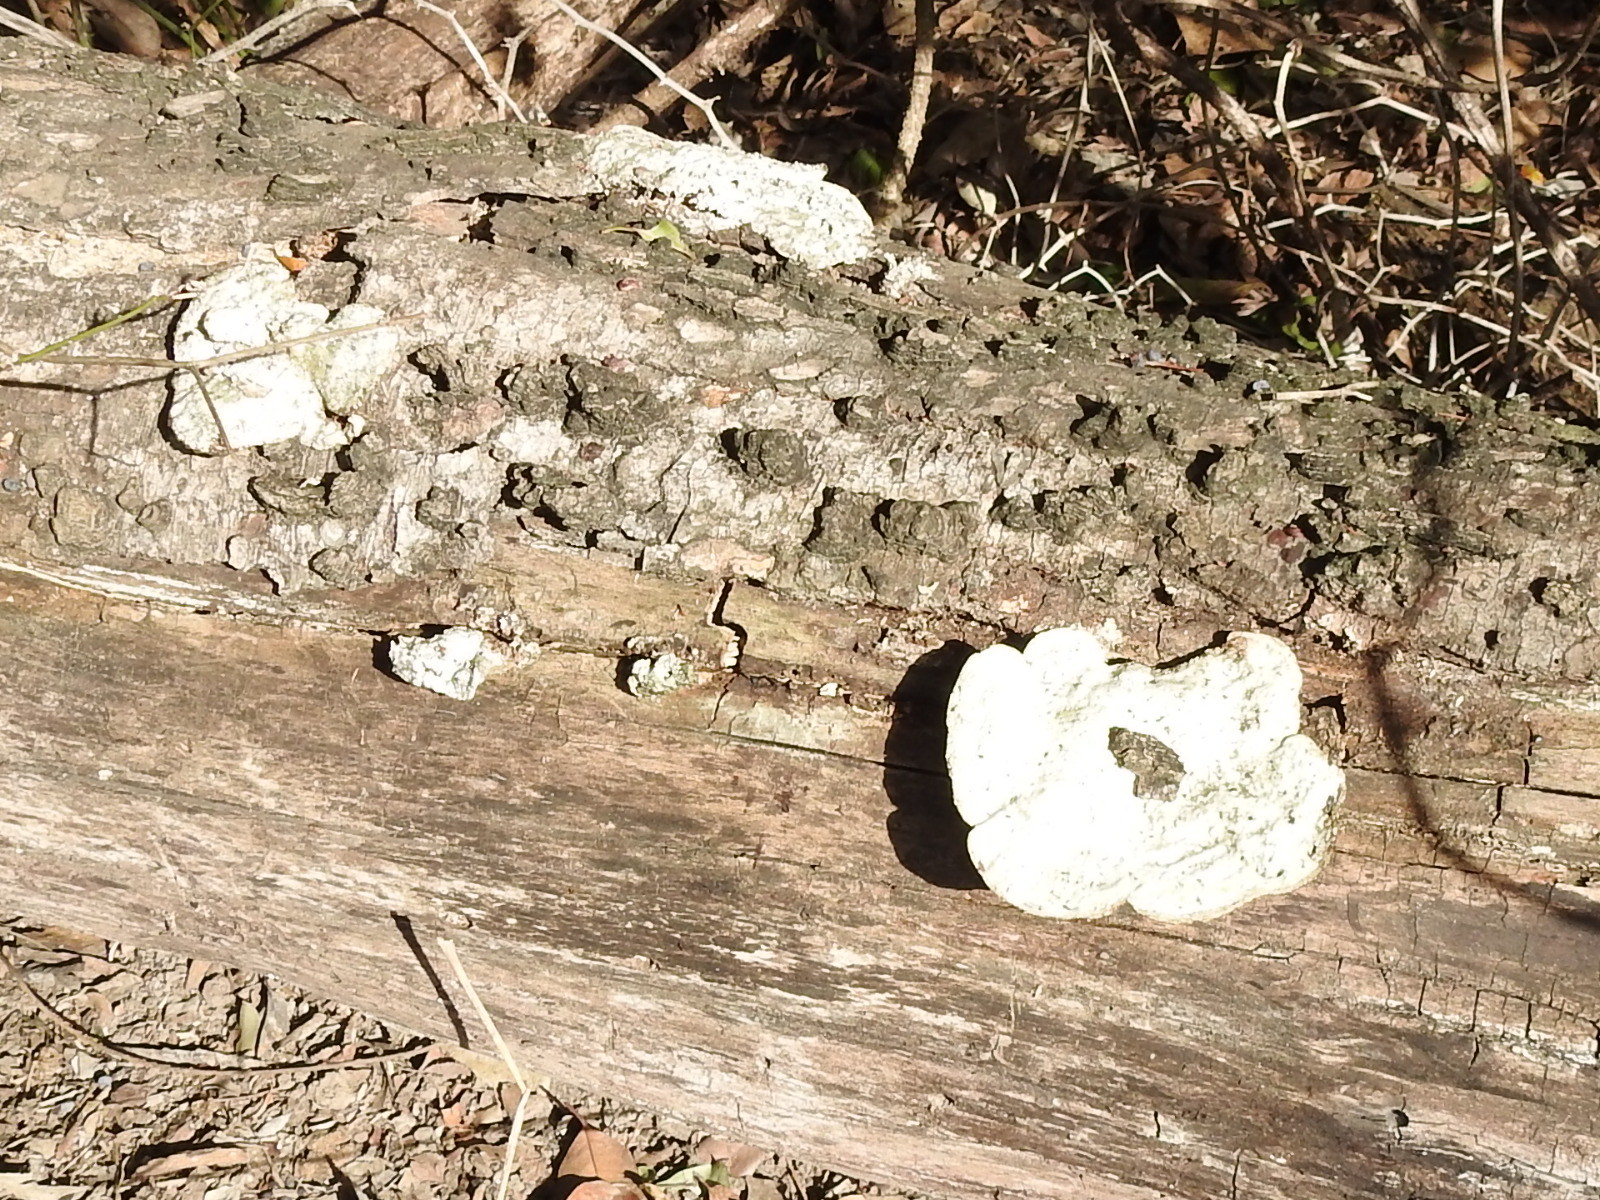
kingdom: Fungi
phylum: Basidiomycota
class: Agaricomycetes
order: Polyporales
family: Polyporaceae
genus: Trametes
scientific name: Trametes
